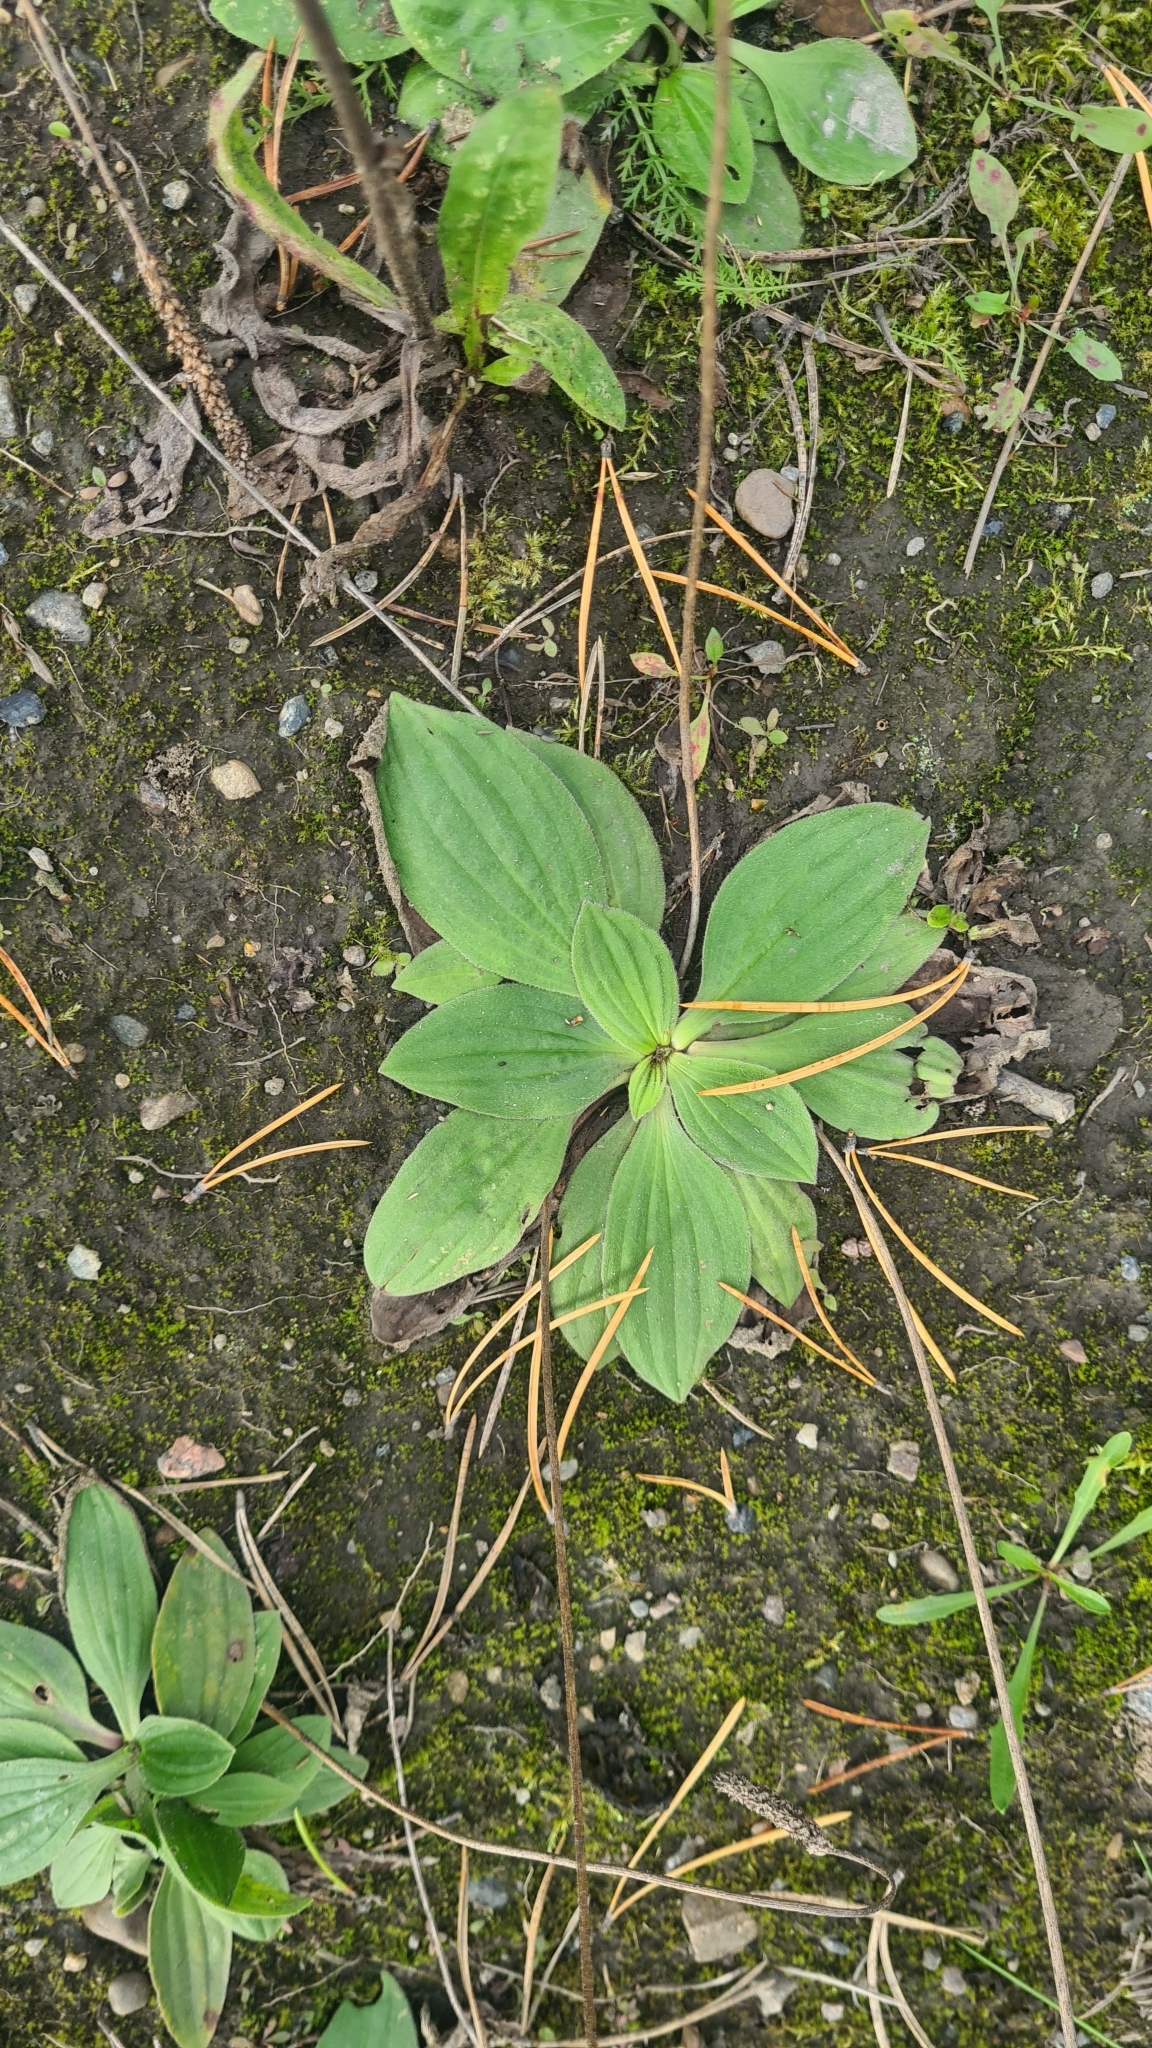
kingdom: Plantae
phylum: Tracheophyta
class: Magnoliopsida
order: Lamiales
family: Plantaginaceae
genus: Plantago
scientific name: Plantago media
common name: Hoary plantain
